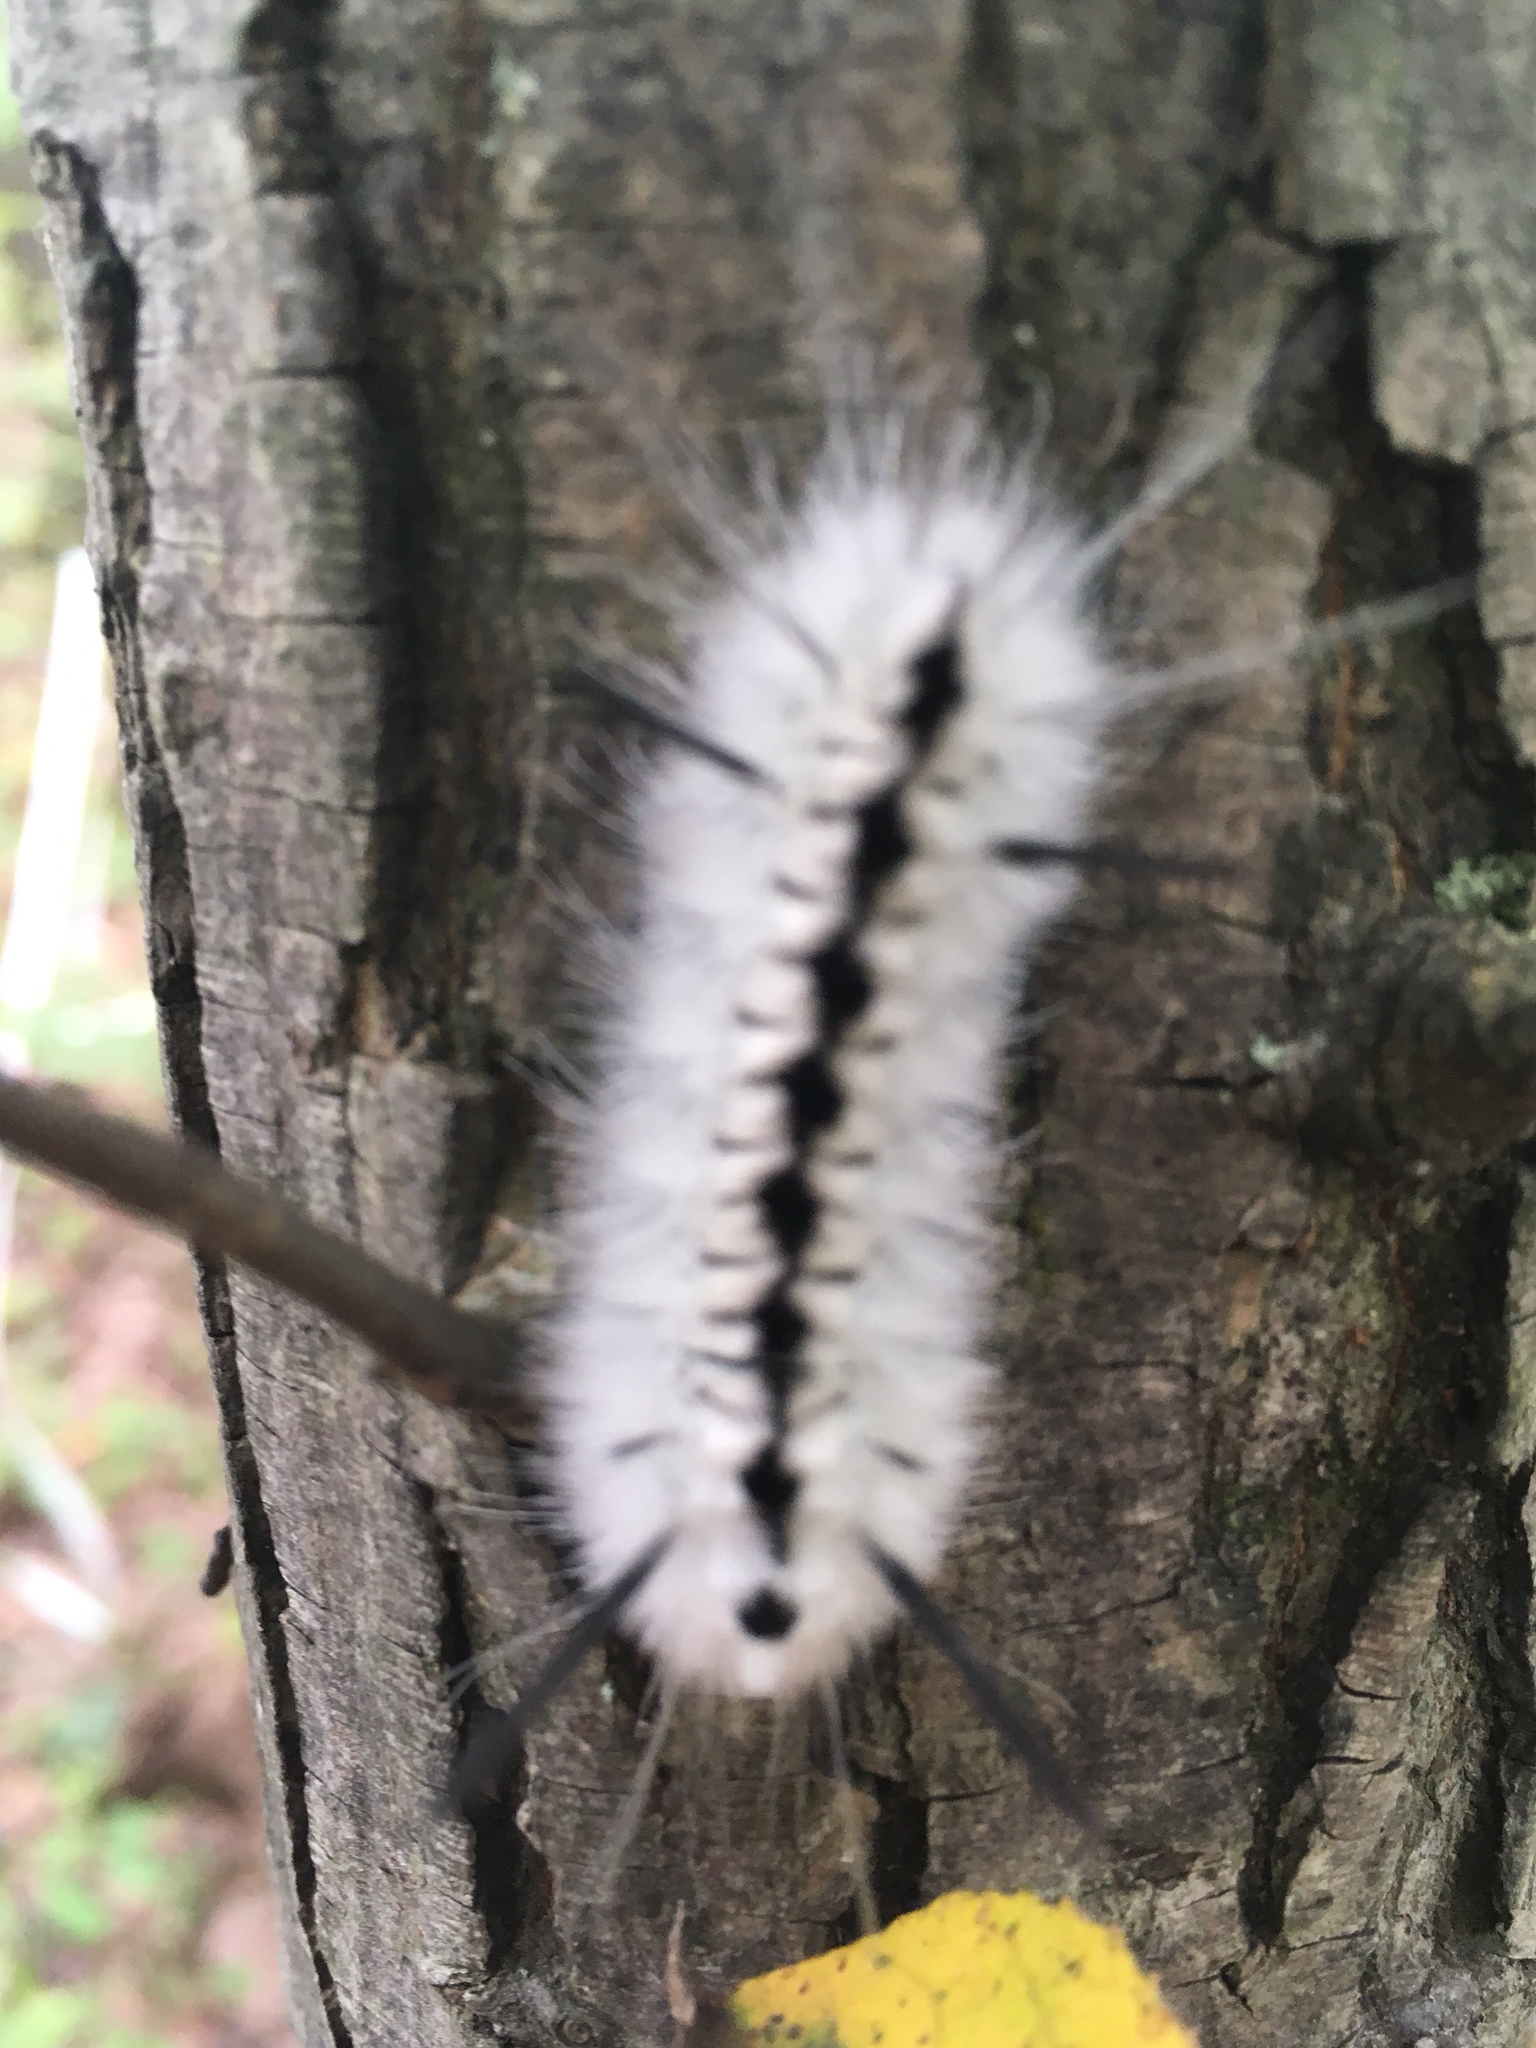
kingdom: Animalia
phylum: Arthropoda
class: Insecta
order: Lepidoptera
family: Erebidae
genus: Lophocampa
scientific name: Lophocampa caryae
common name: Hickory tussock moth
